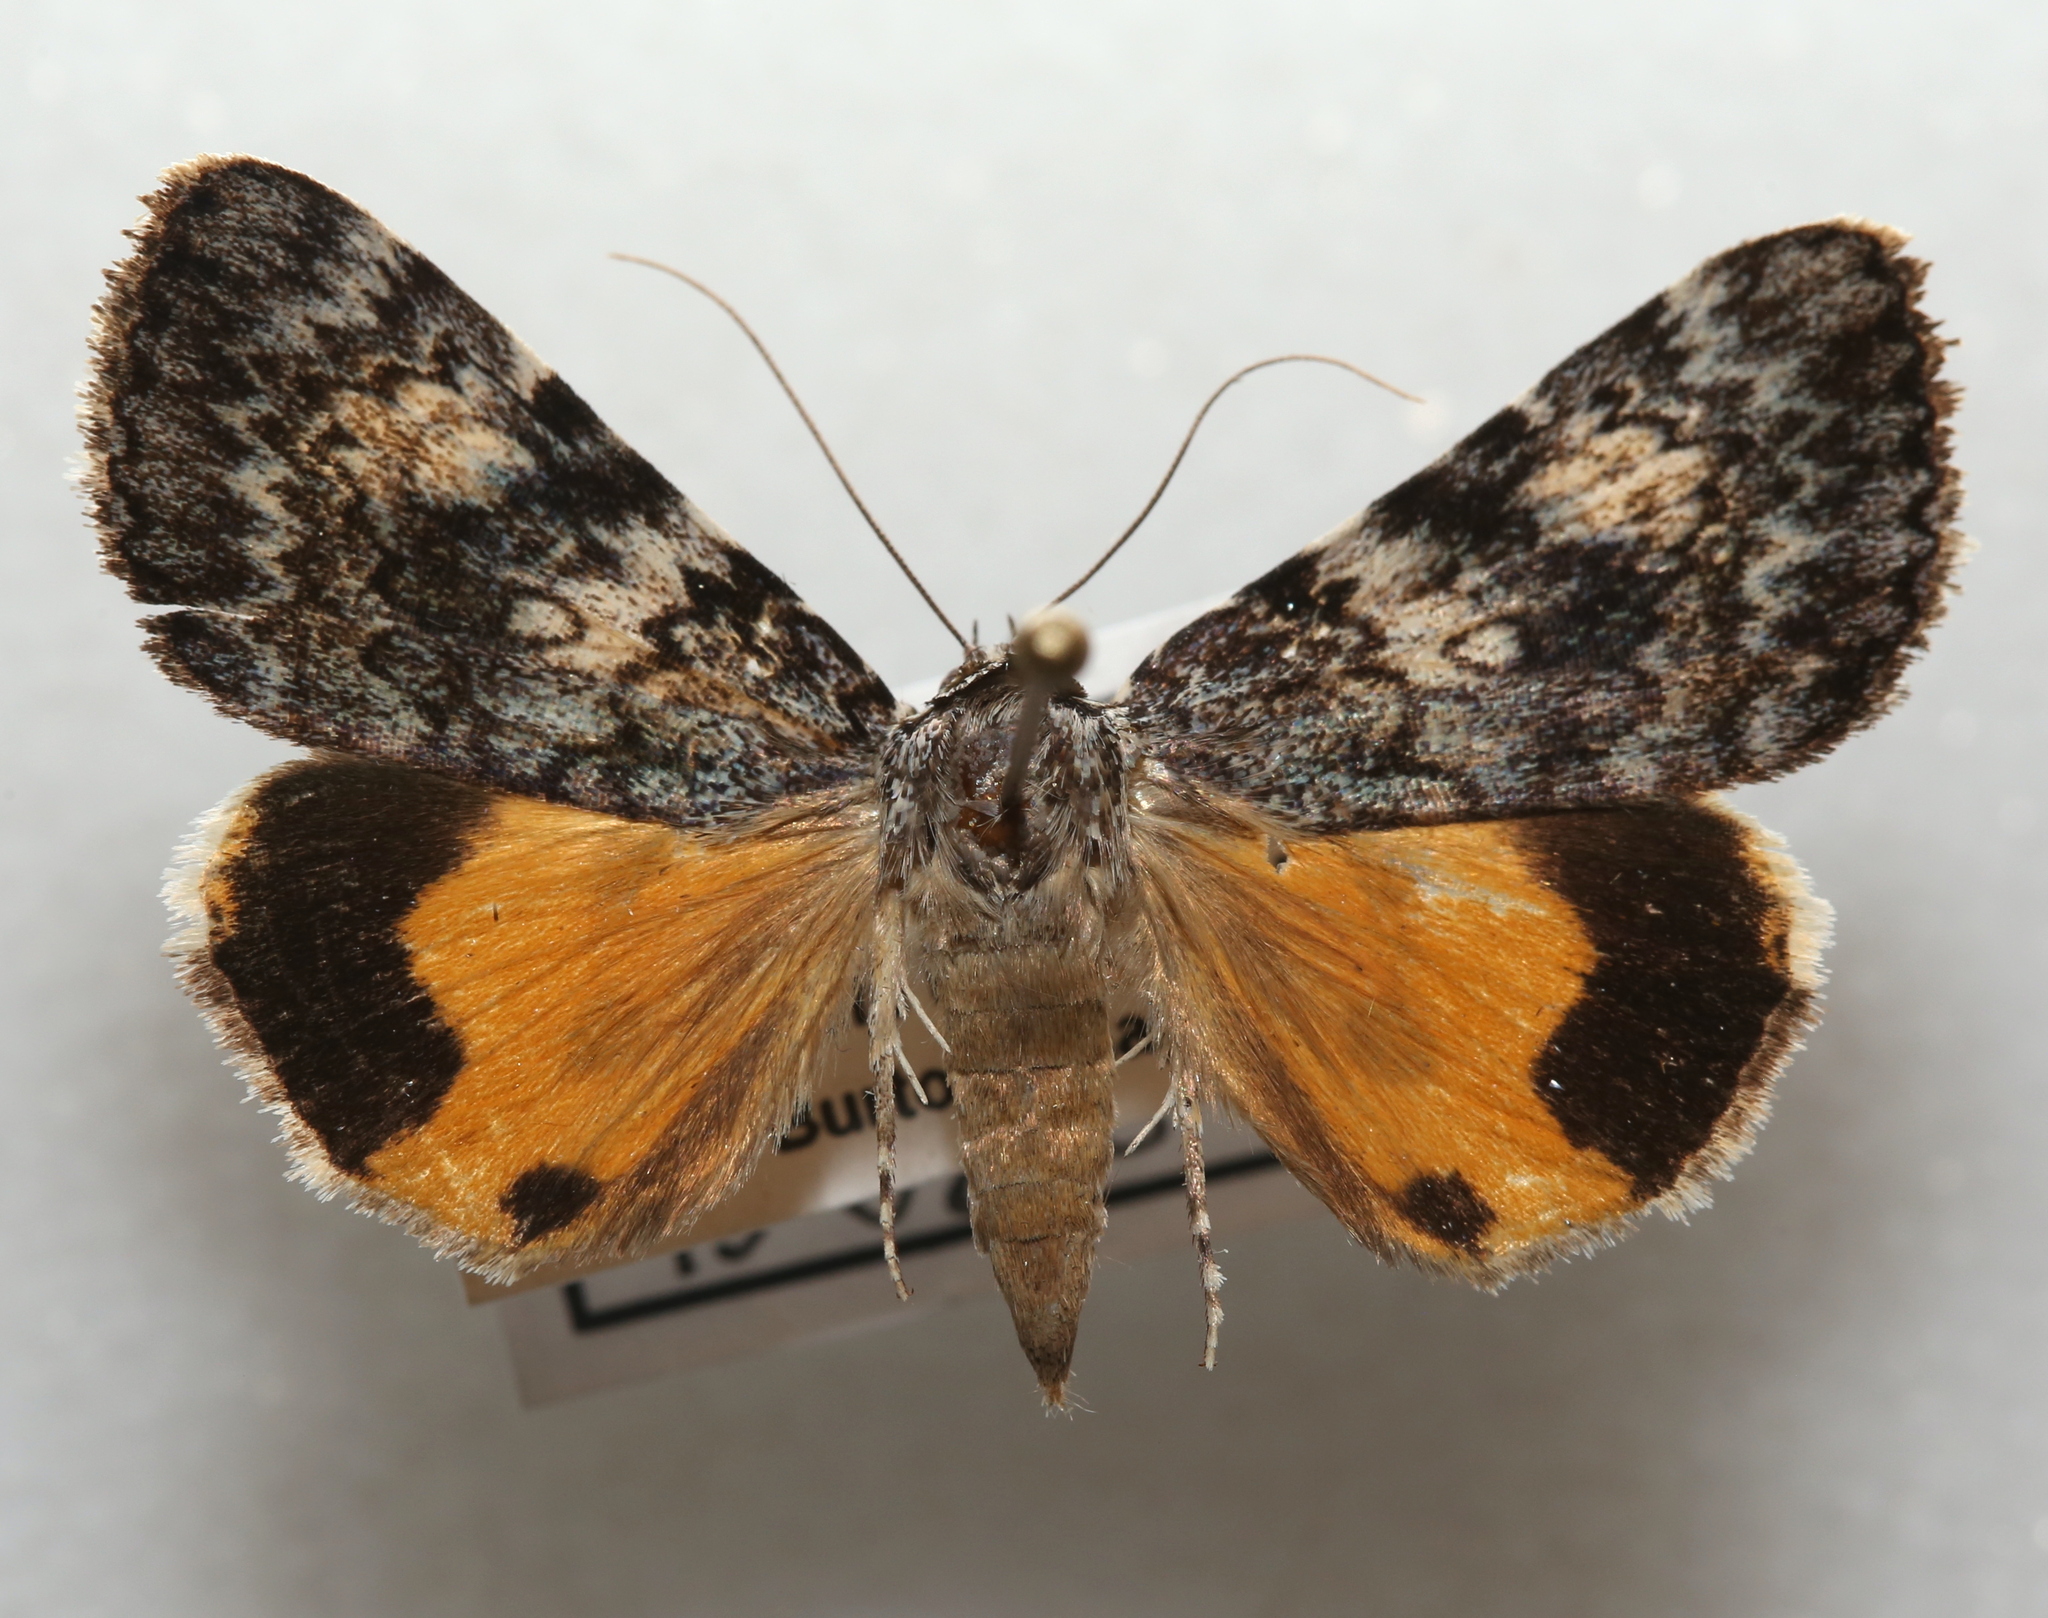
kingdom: Animalia
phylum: Arthropoda
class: Insecta
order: Lepidoptera
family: Erebidae
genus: Catocala
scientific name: Catocala lineella
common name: Little lined underwing
